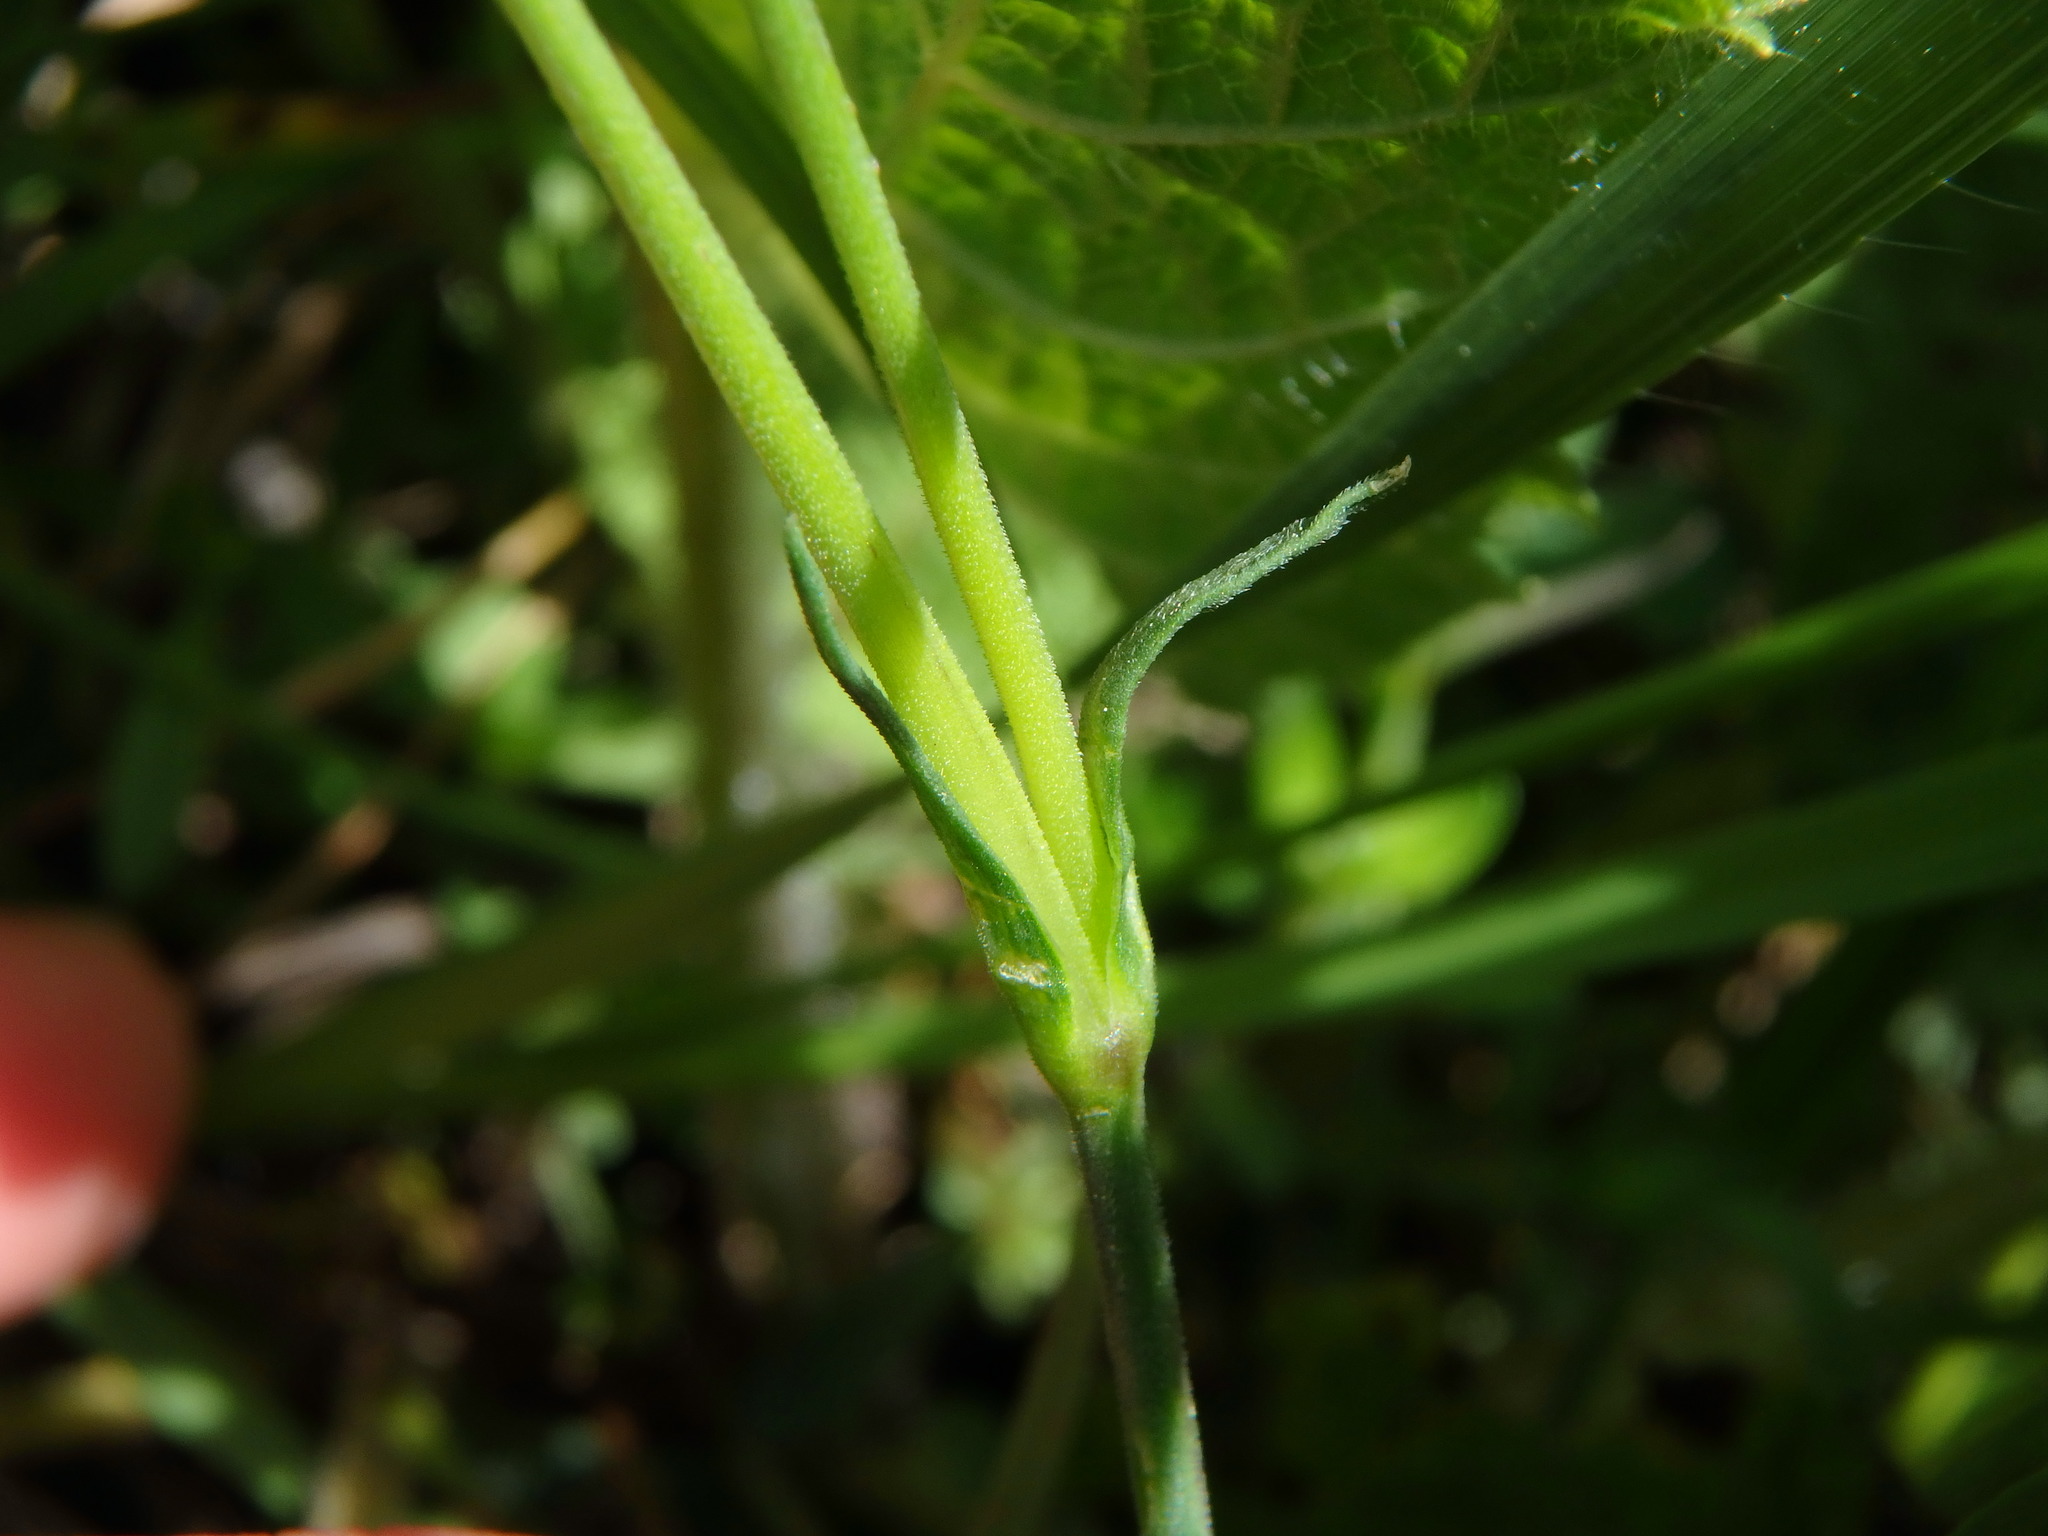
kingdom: Plantae
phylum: Tracheophyta
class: Magnoliopsida
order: Caryophyllales
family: Caryophyllaceae
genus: Dianthus
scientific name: Dianthus deltoides
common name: Maiden pink
